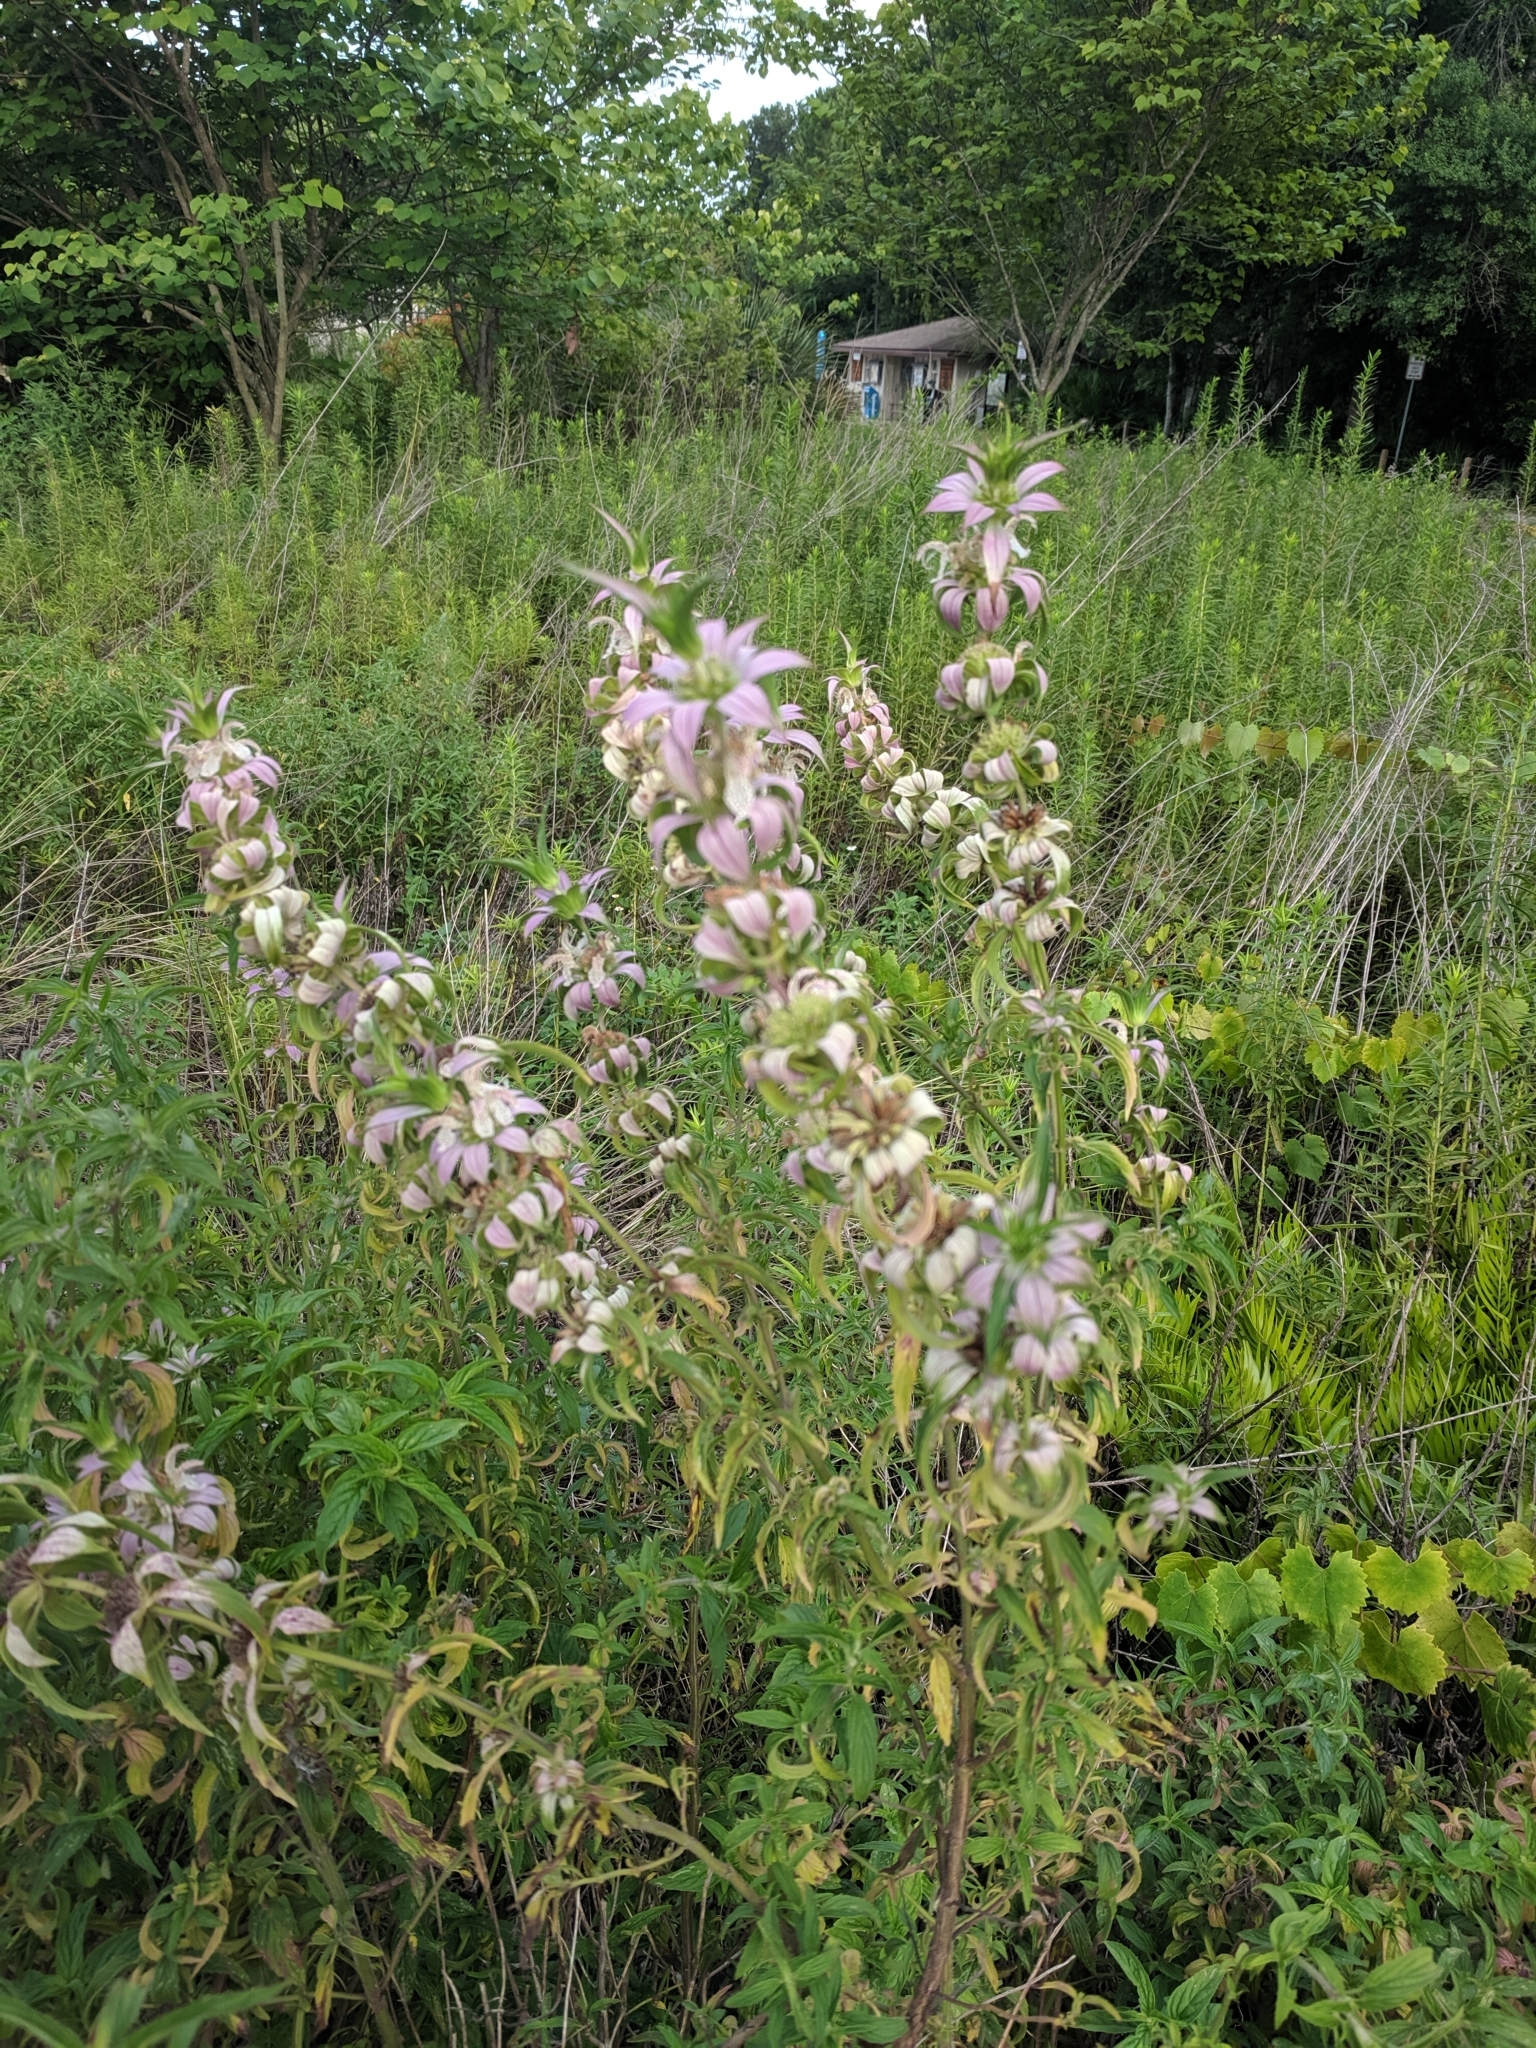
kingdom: Plantae
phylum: Tracheophyta
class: Magnoliopsida
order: Lamiales
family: Lamiaceae
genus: Monarda
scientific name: Monarda punctata
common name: Dotted monarda
